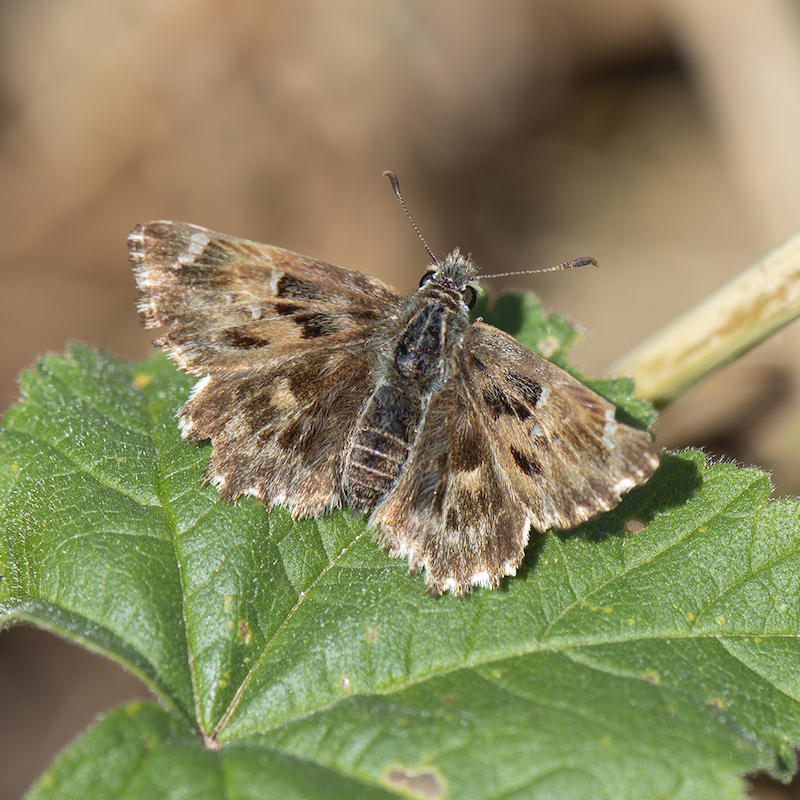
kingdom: Animalia
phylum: Arthropoda
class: Insecta
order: Lepidoptera
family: Hesperiidae
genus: Carcharodus
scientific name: Carcharodus alceae
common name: Mallow skipper
